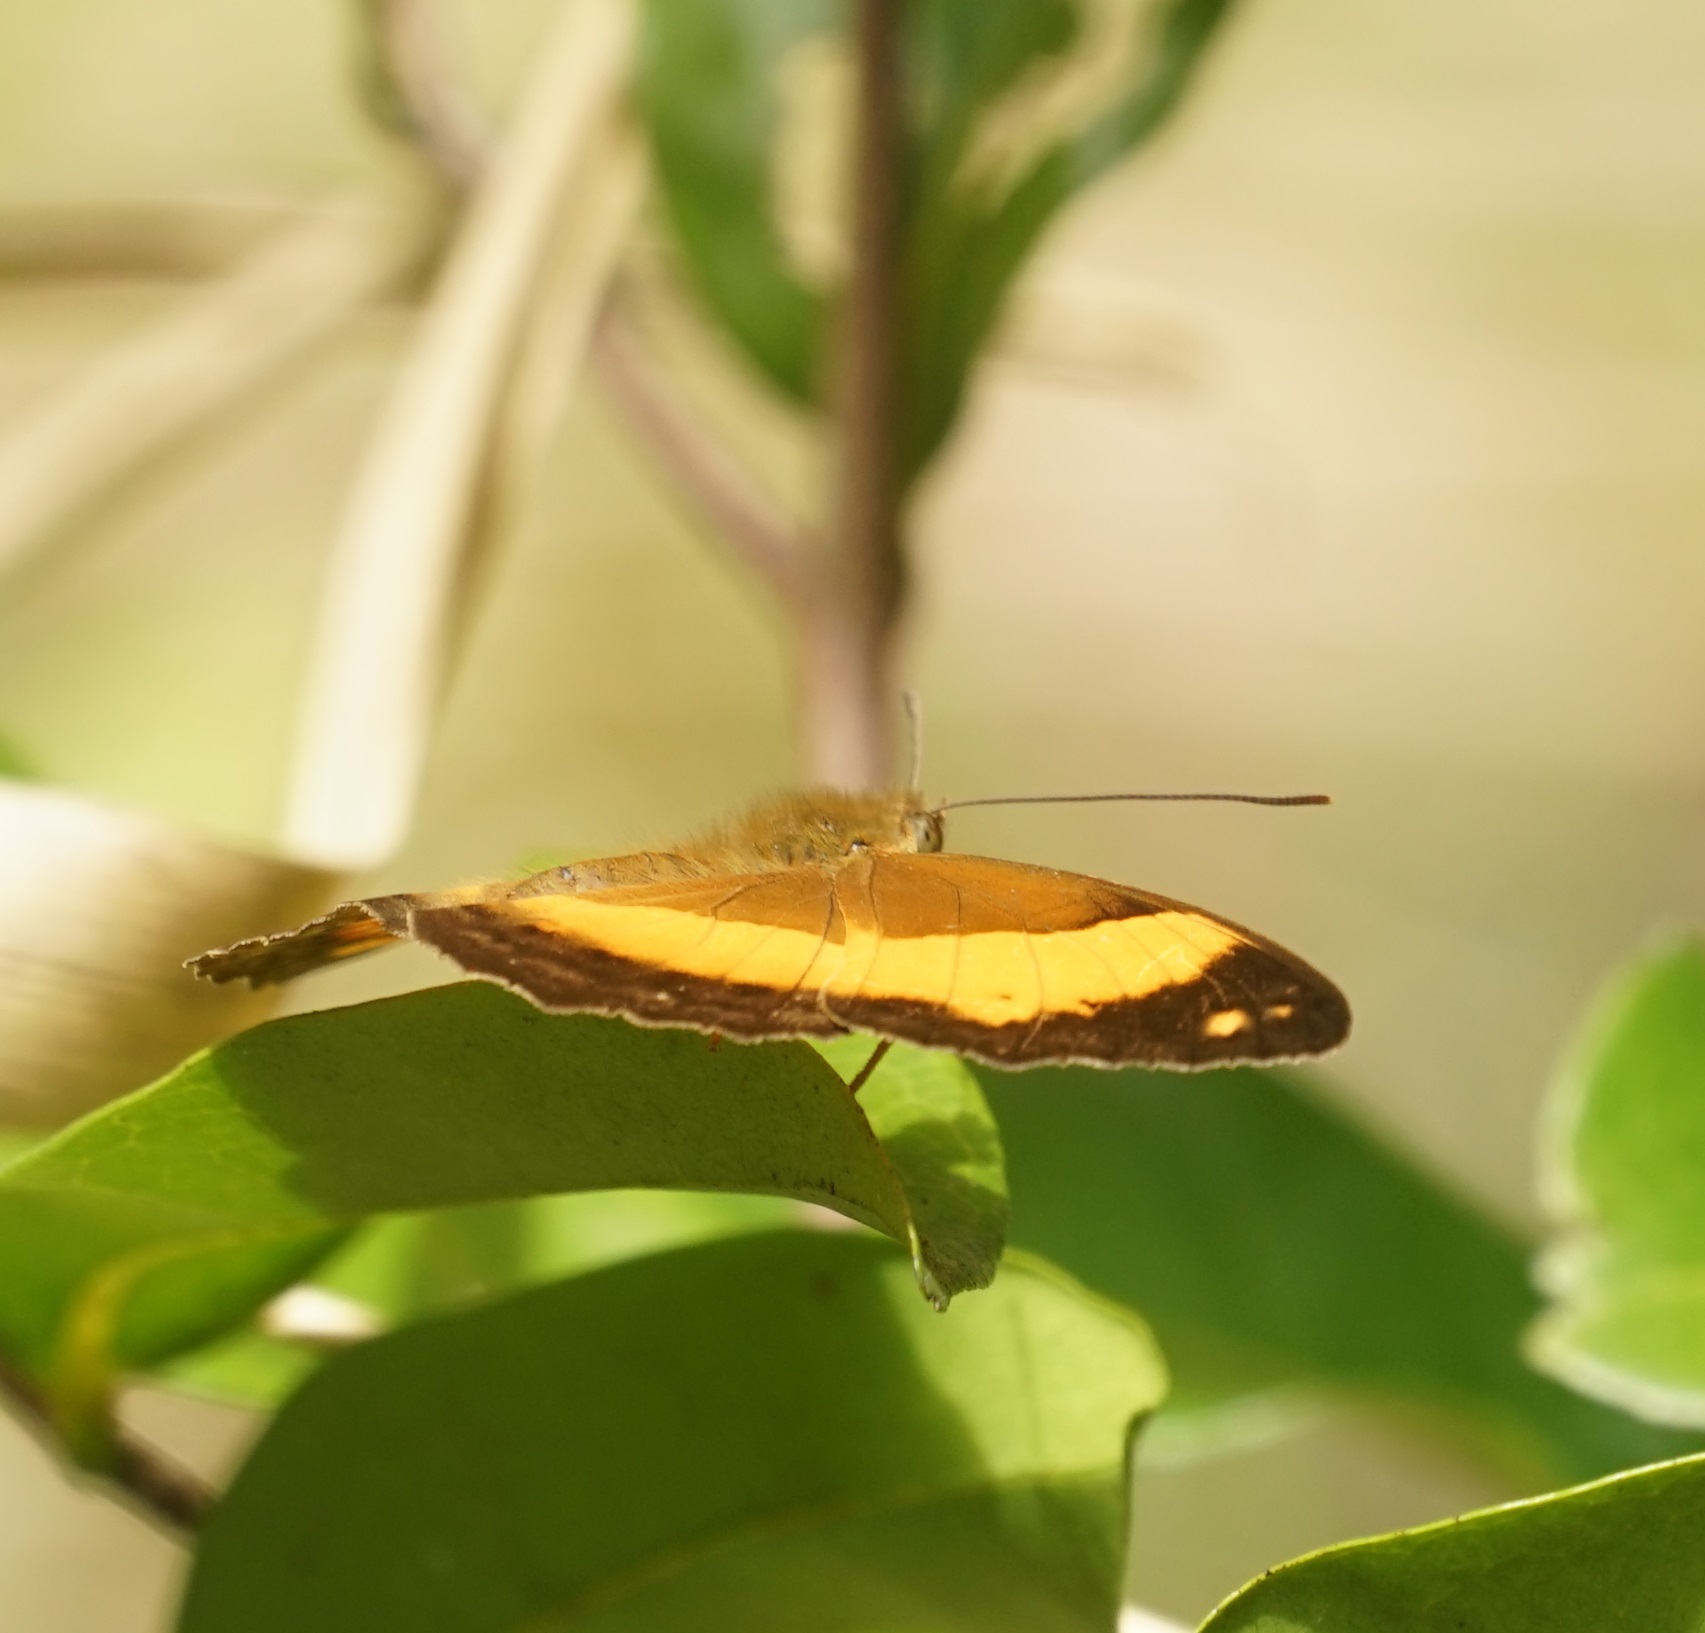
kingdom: Animalia
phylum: Arthropoda
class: Insecta
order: Lepidoptera
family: Nymphalidae
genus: Cupha
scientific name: Cupha prosope
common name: Bordered rustic
